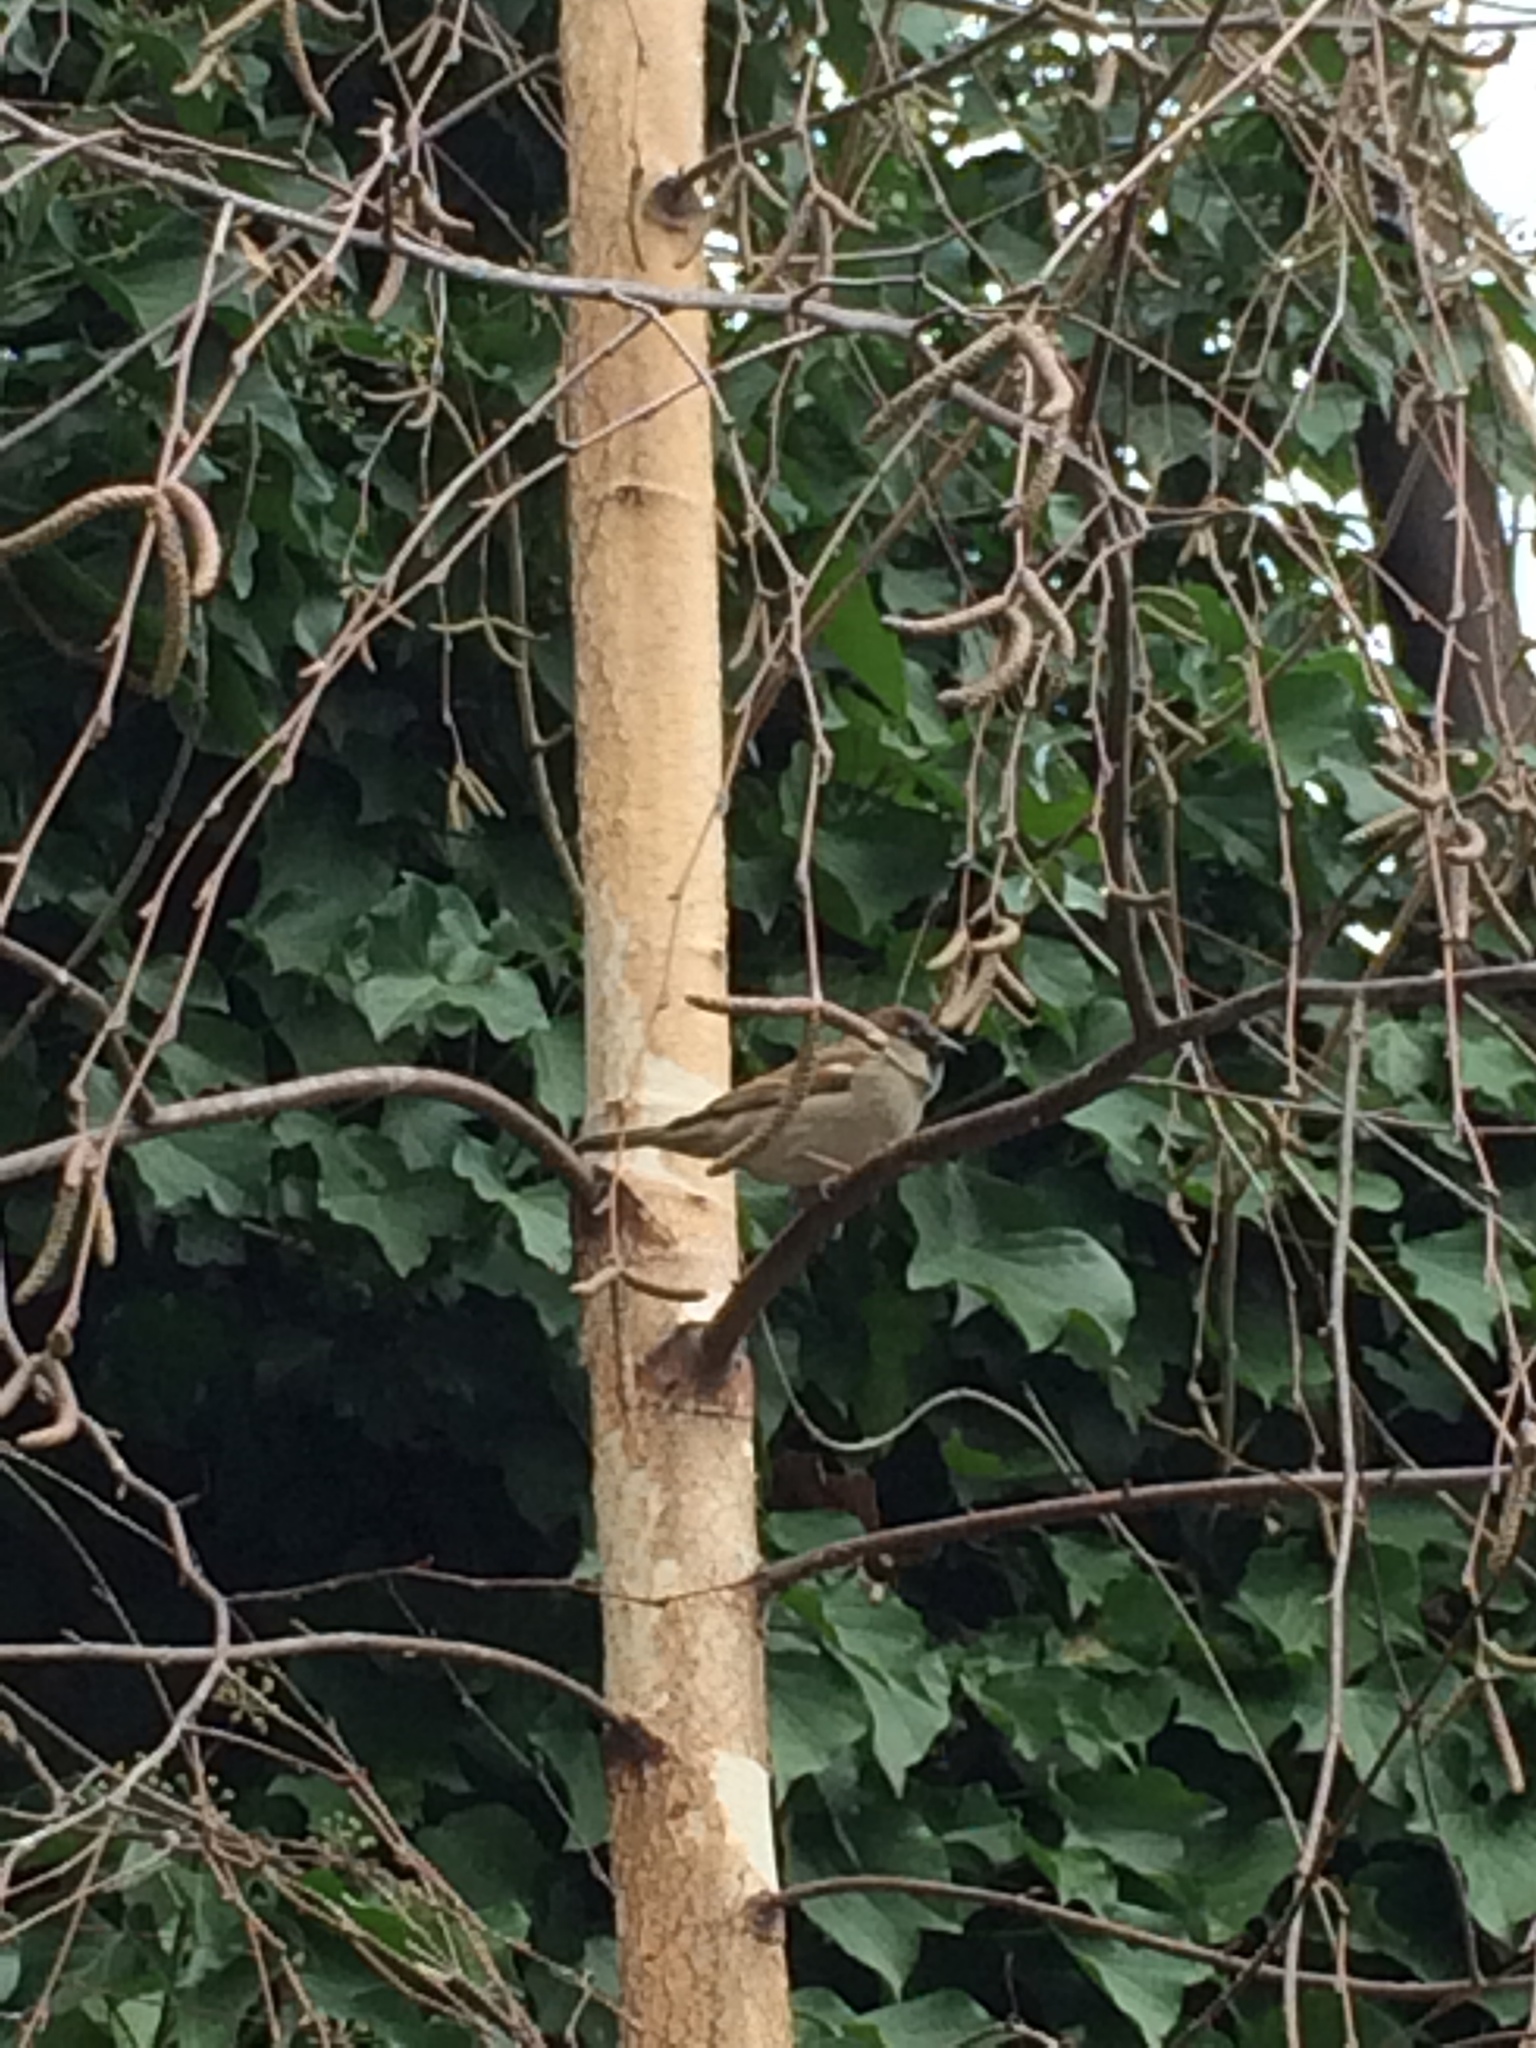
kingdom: Animalia
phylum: Chordata
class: Aves
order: Passeriformes
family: Passeridae
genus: Passer
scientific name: Passer domesticus
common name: House sparrow
